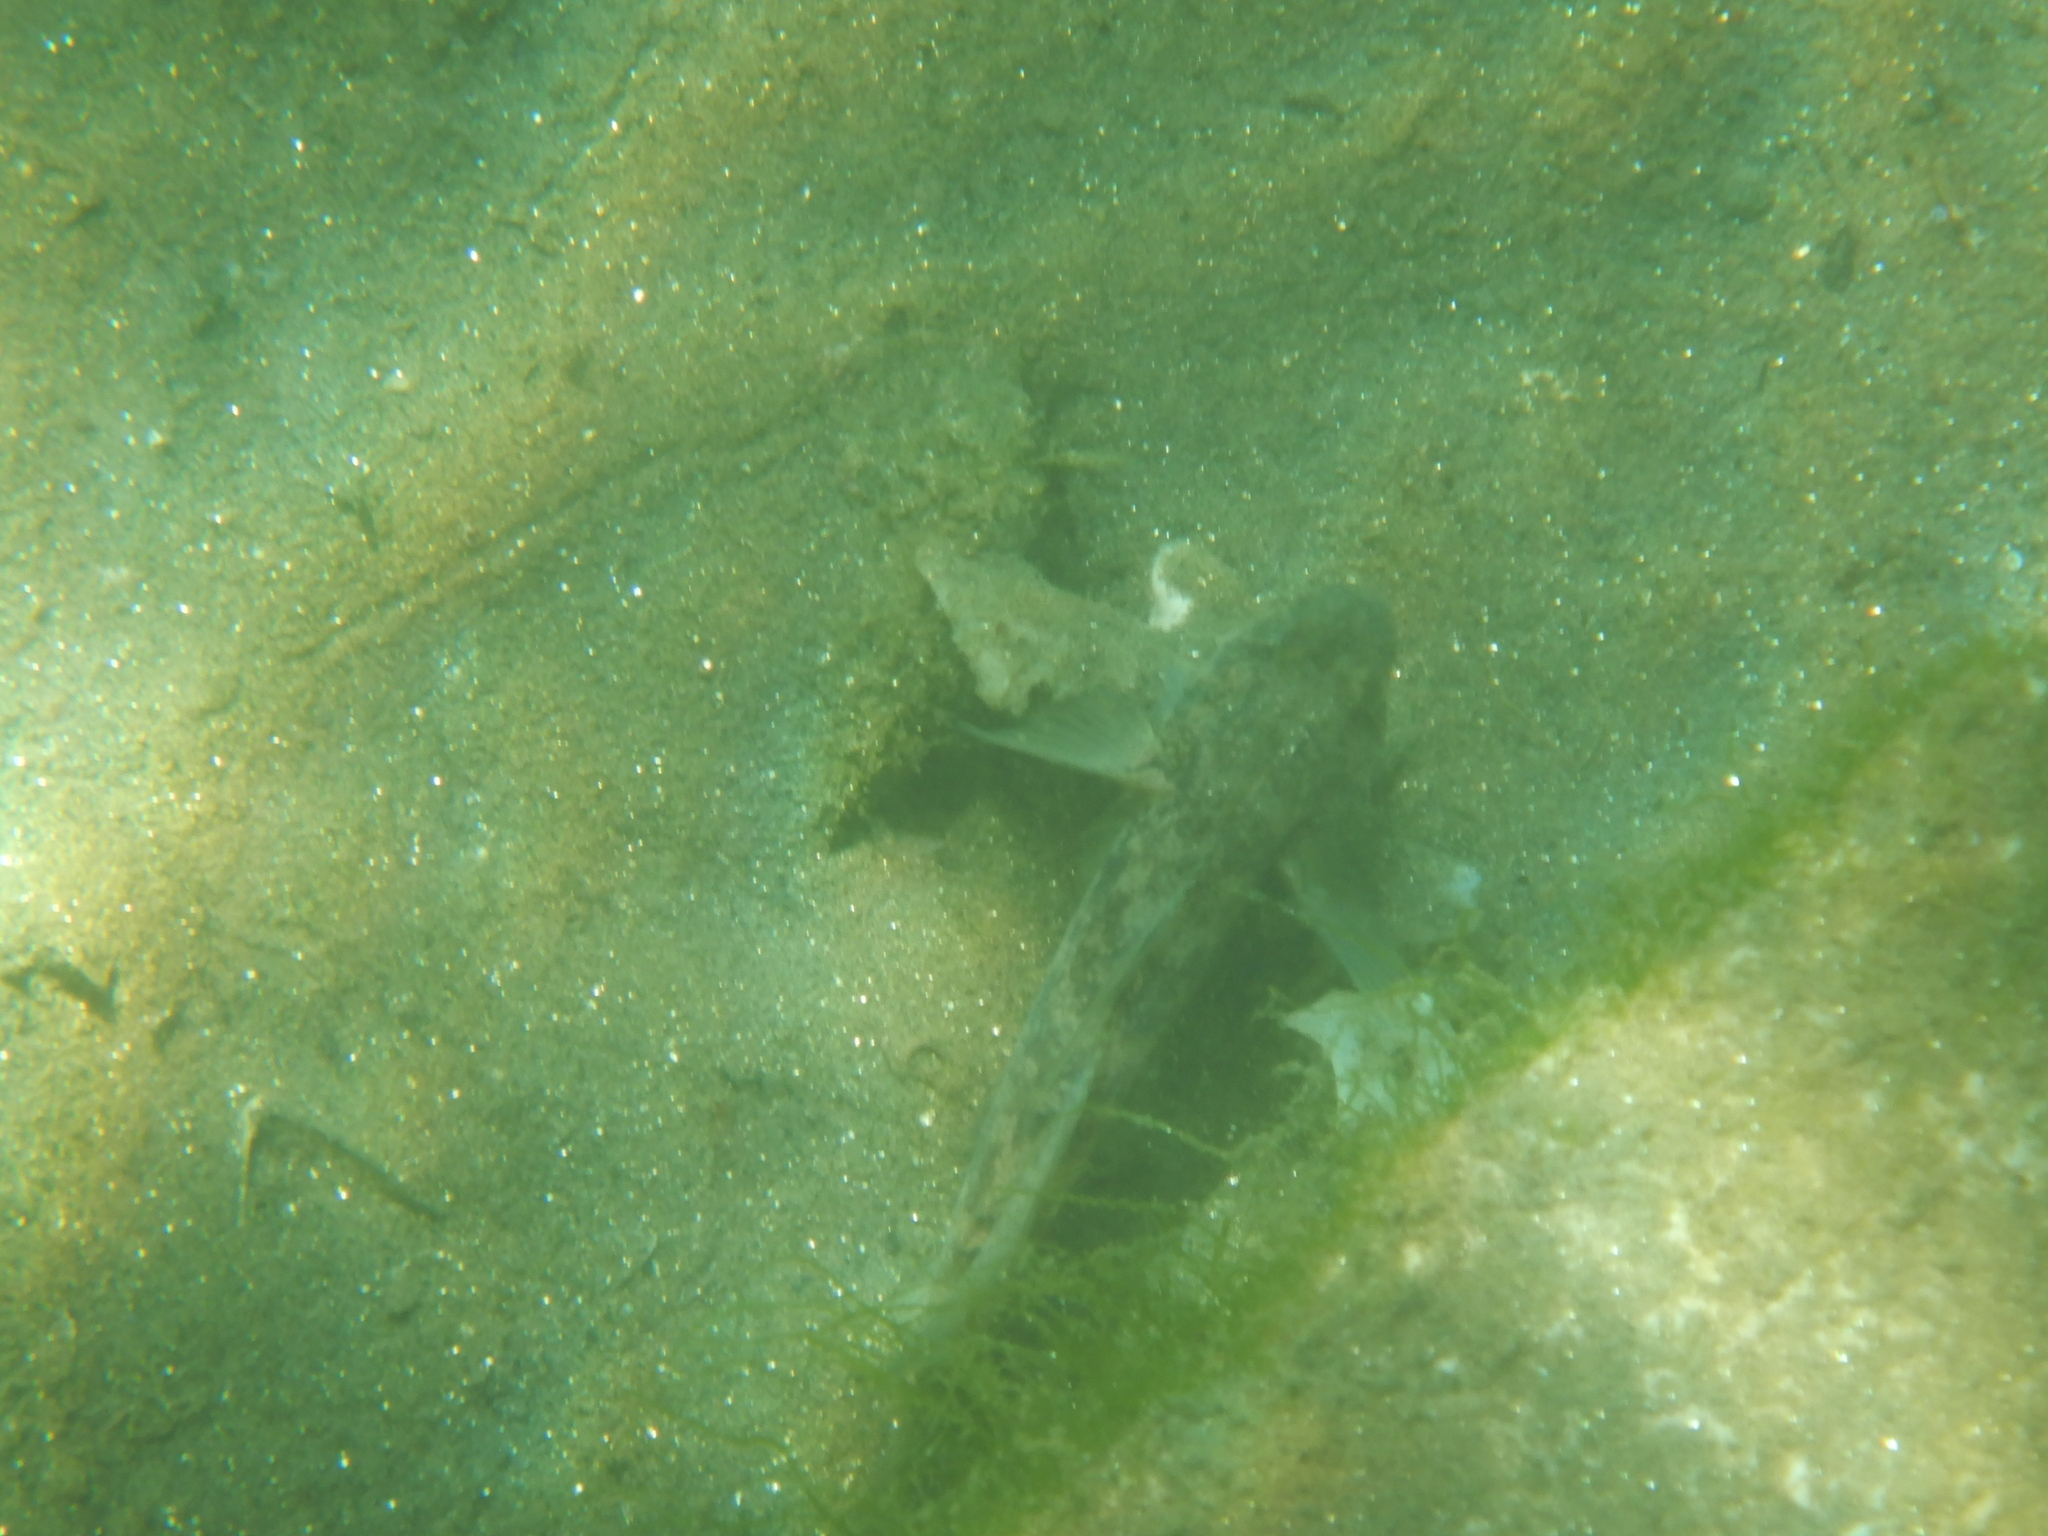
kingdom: Animalia
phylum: Chordata
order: Perciformes
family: Gobiidae
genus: Gobius
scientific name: Gobius niger
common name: Black goby
